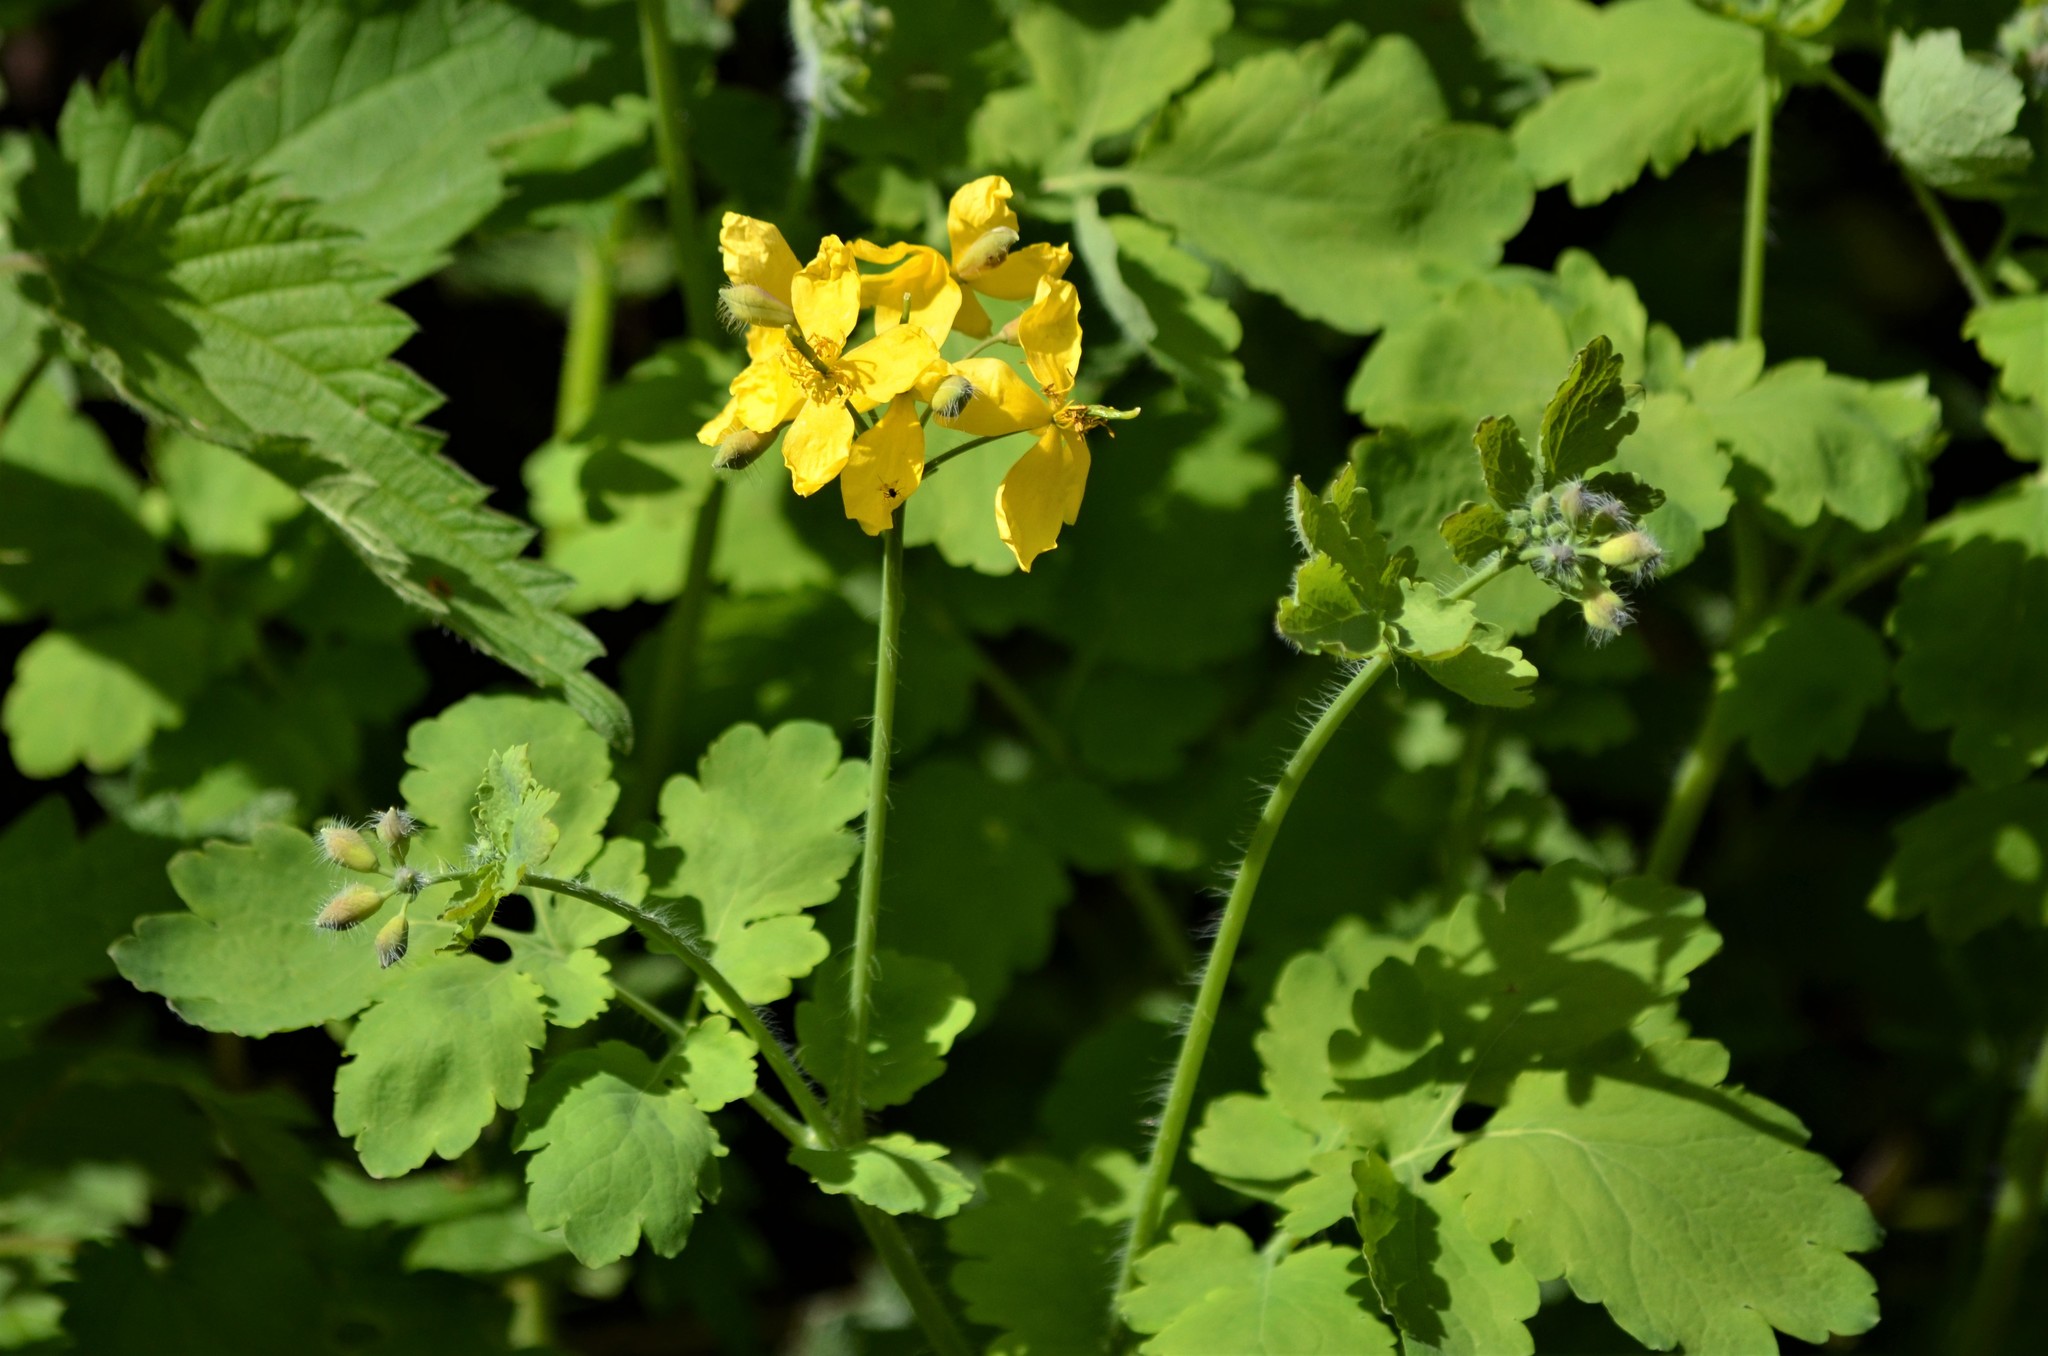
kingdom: Plantae
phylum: Tracheophyta
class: Magnoliopsida
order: Ranunculales
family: Papaveraceae
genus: Chelidonium
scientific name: Chelidonium majus
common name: Greater celandine
